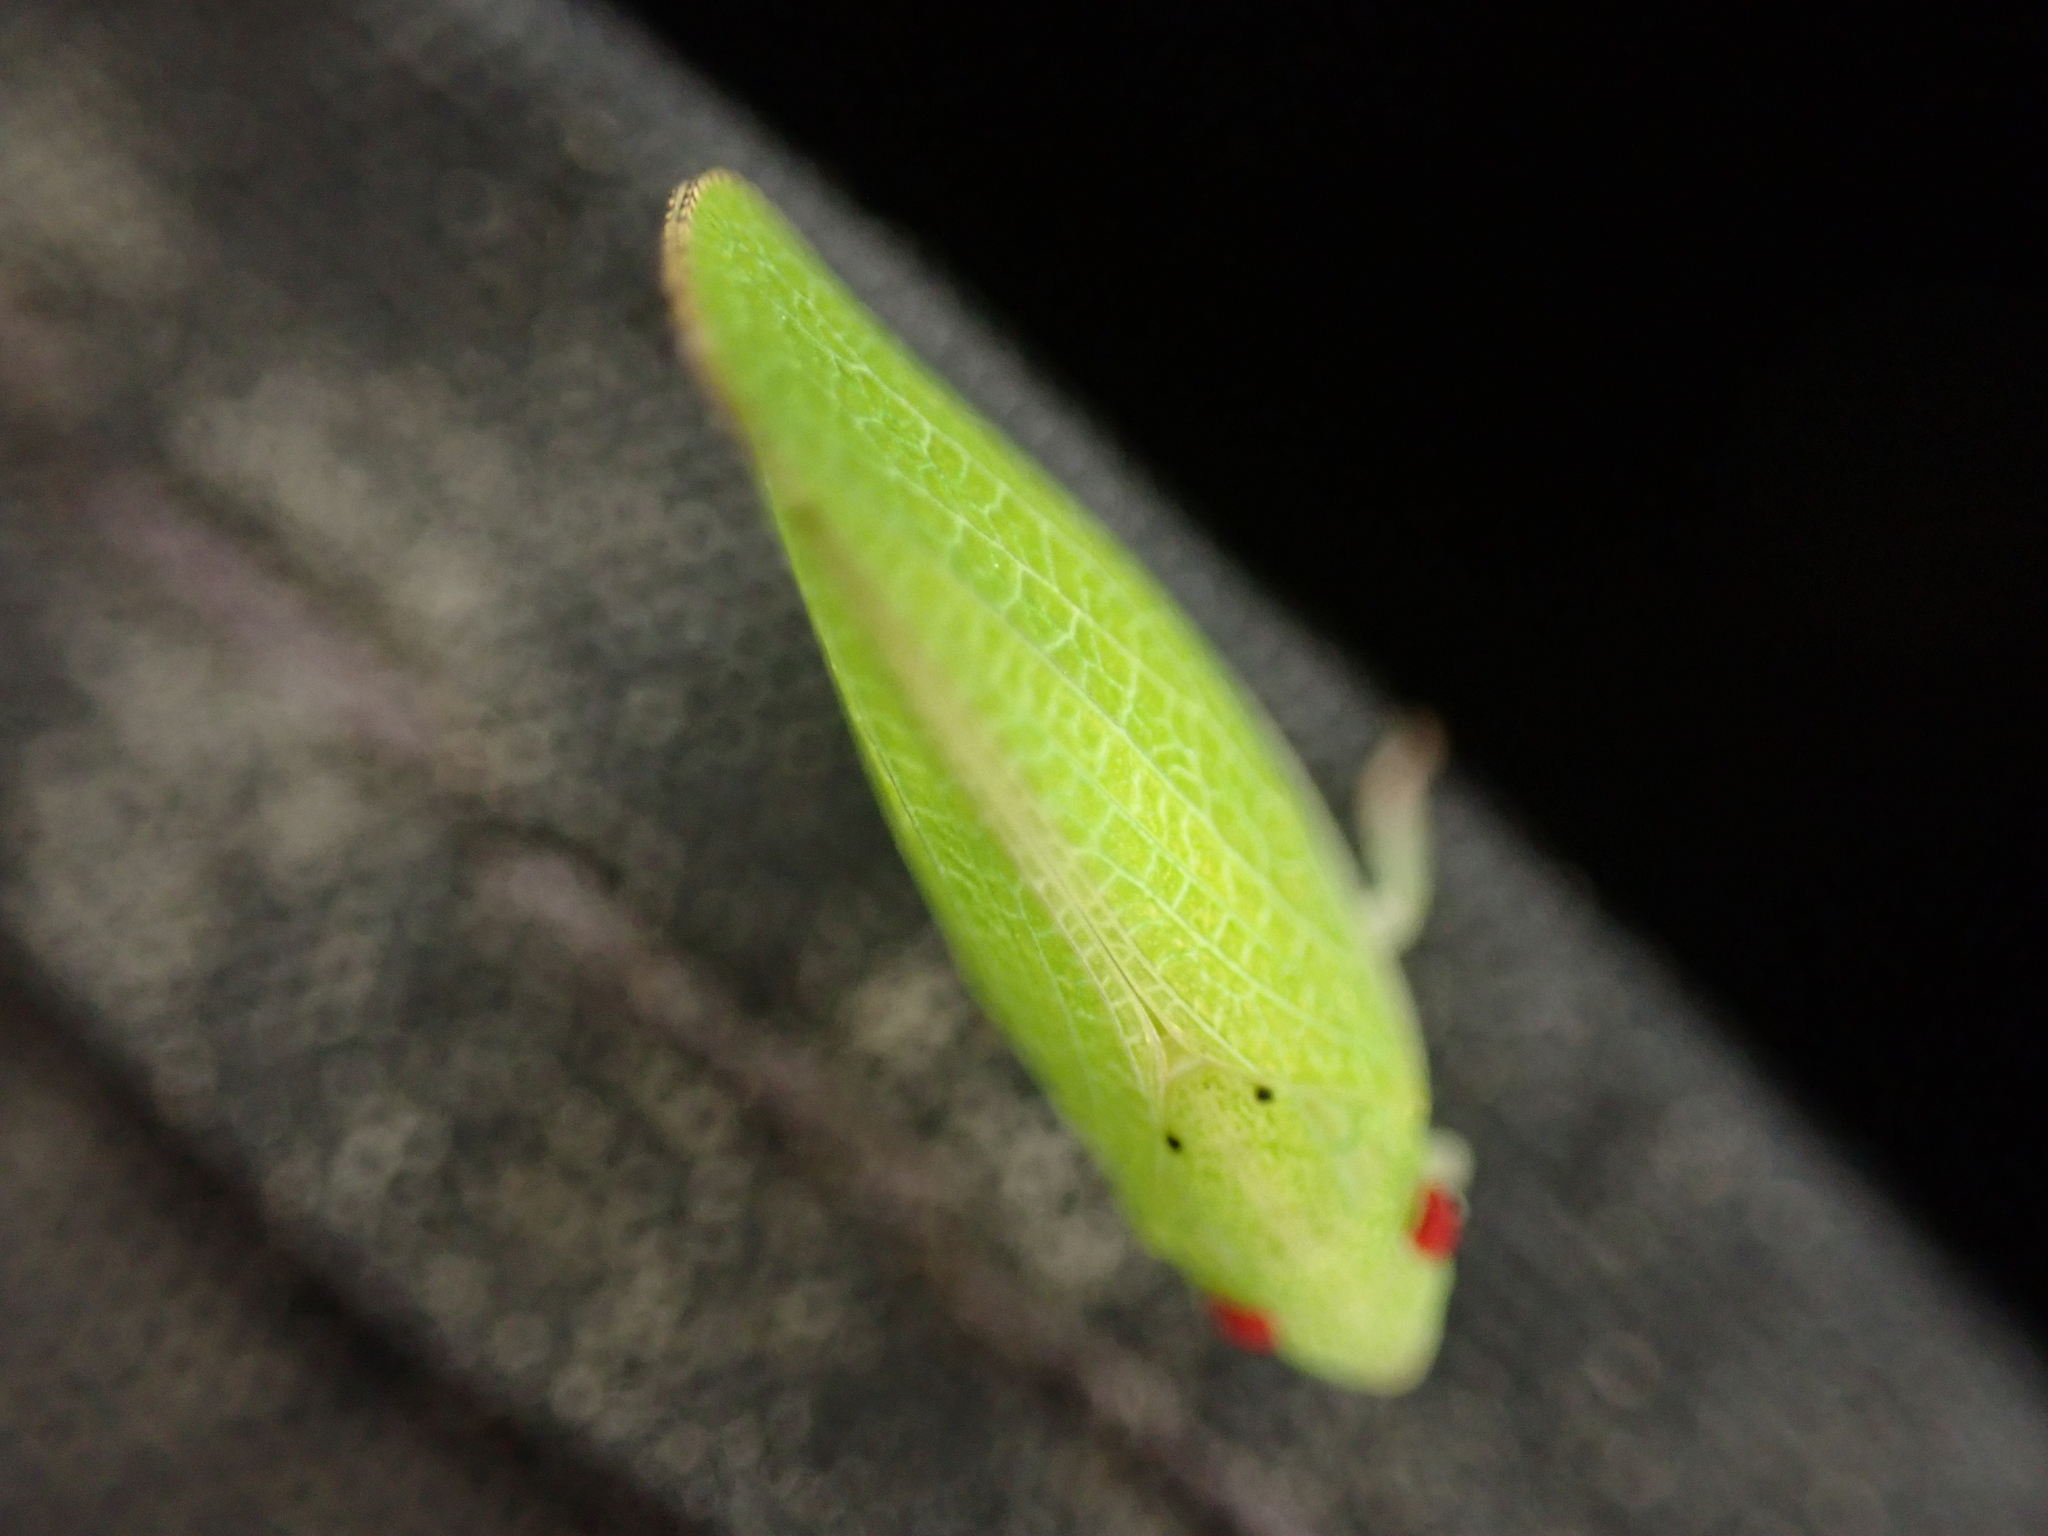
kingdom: Animalia
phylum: Arthropoda
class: Insecta
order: Hemiptera
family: Acanaloniidae
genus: Acanalonia
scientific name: Acanalonia conica
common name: Green cone-headed planthopper
